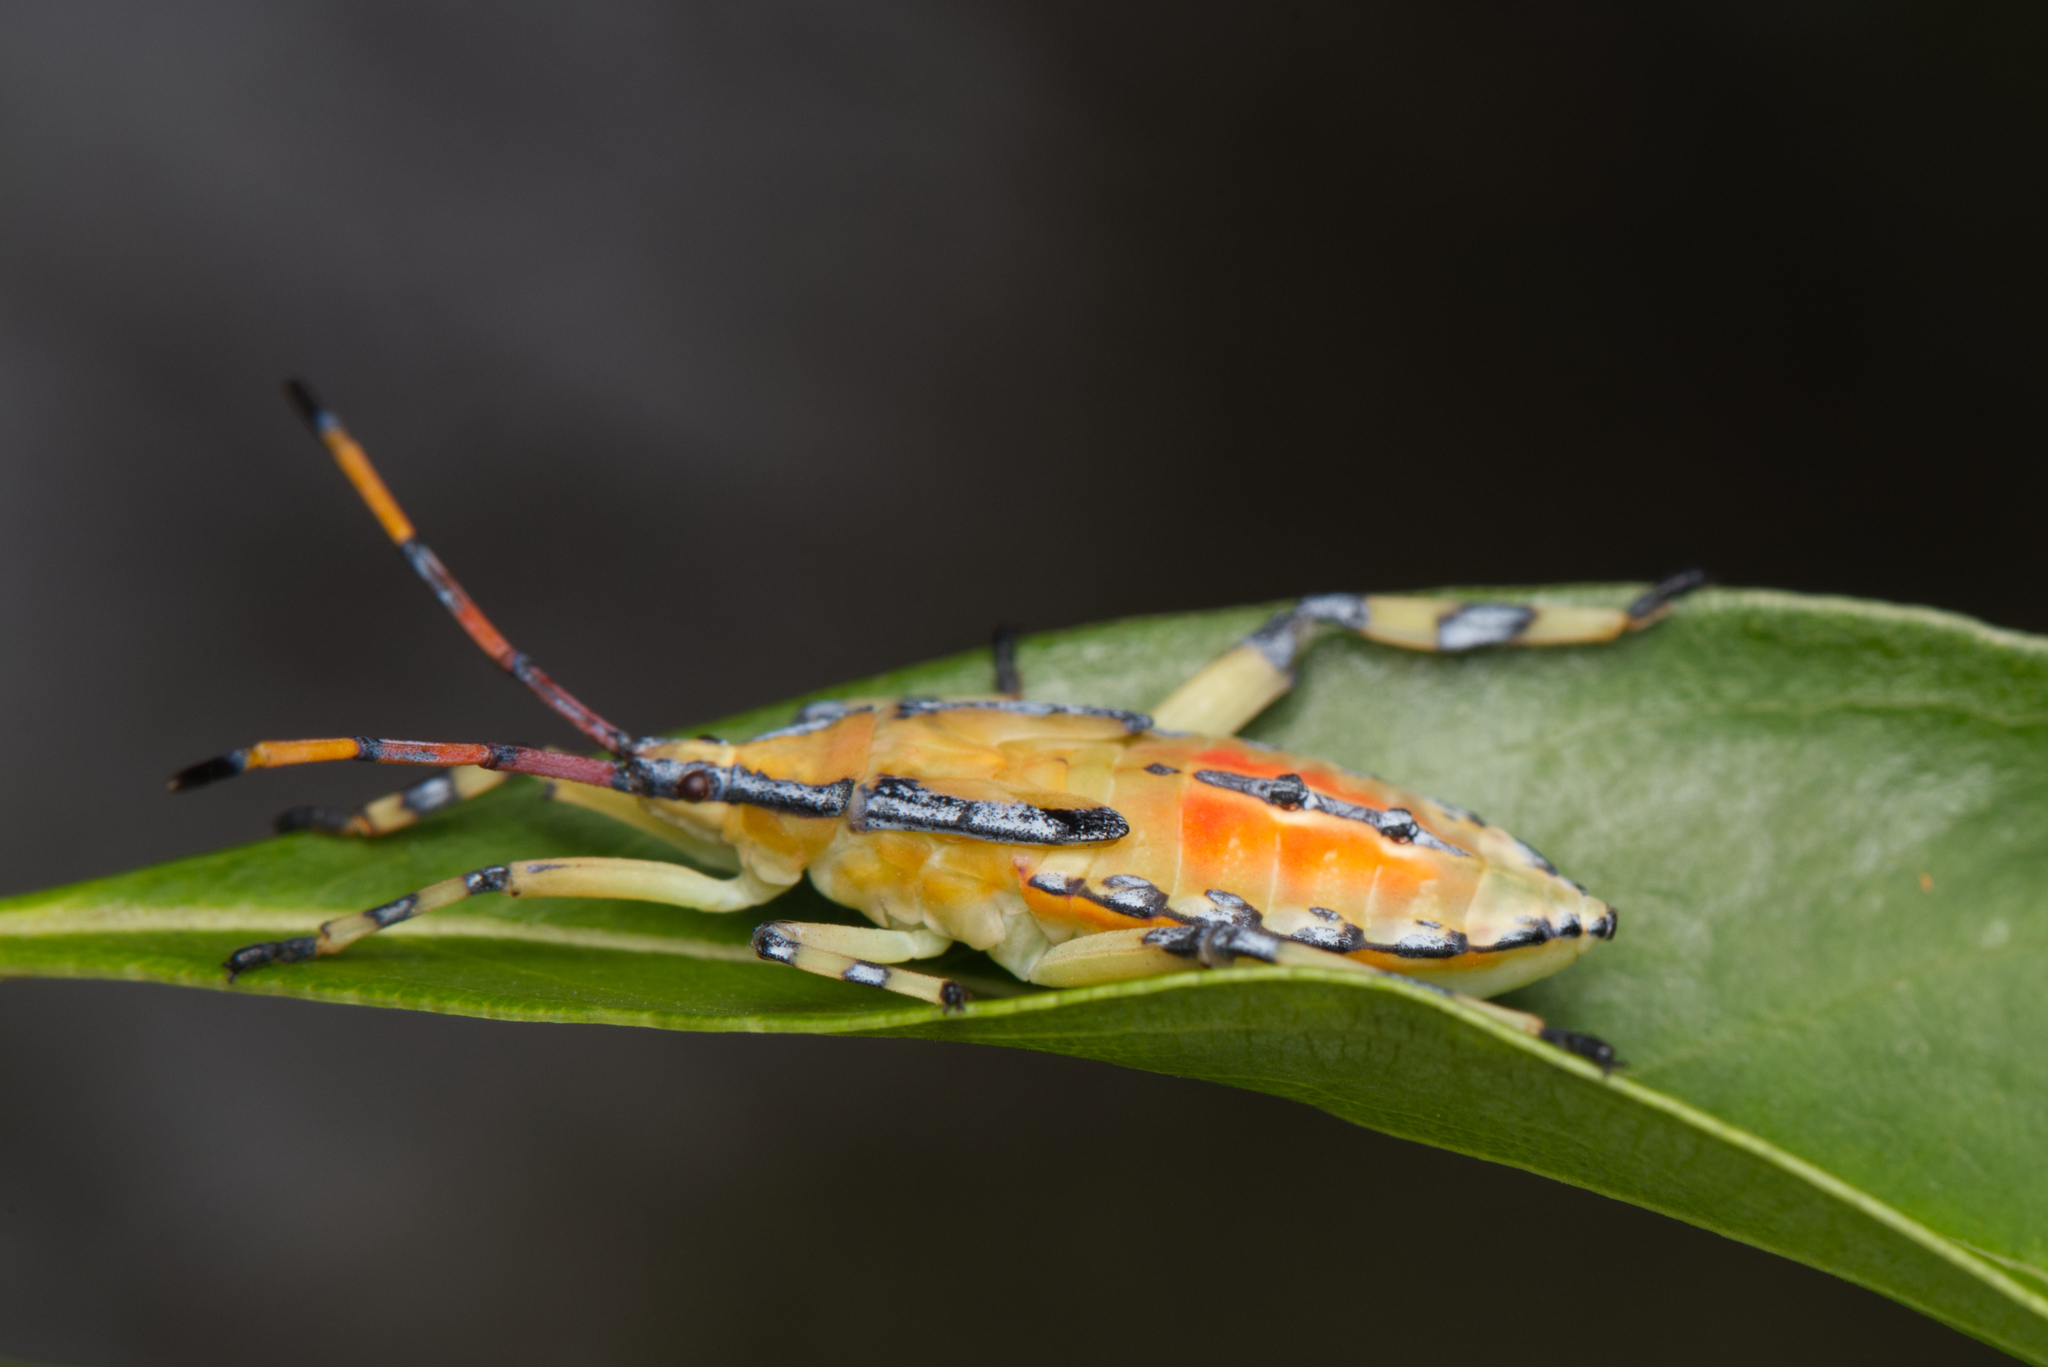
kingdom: Animalia
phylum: Arthropoda
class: Insecta
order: Hemiptera
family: Coreidae
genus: Amorbus
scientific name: Amorbus alternatus
